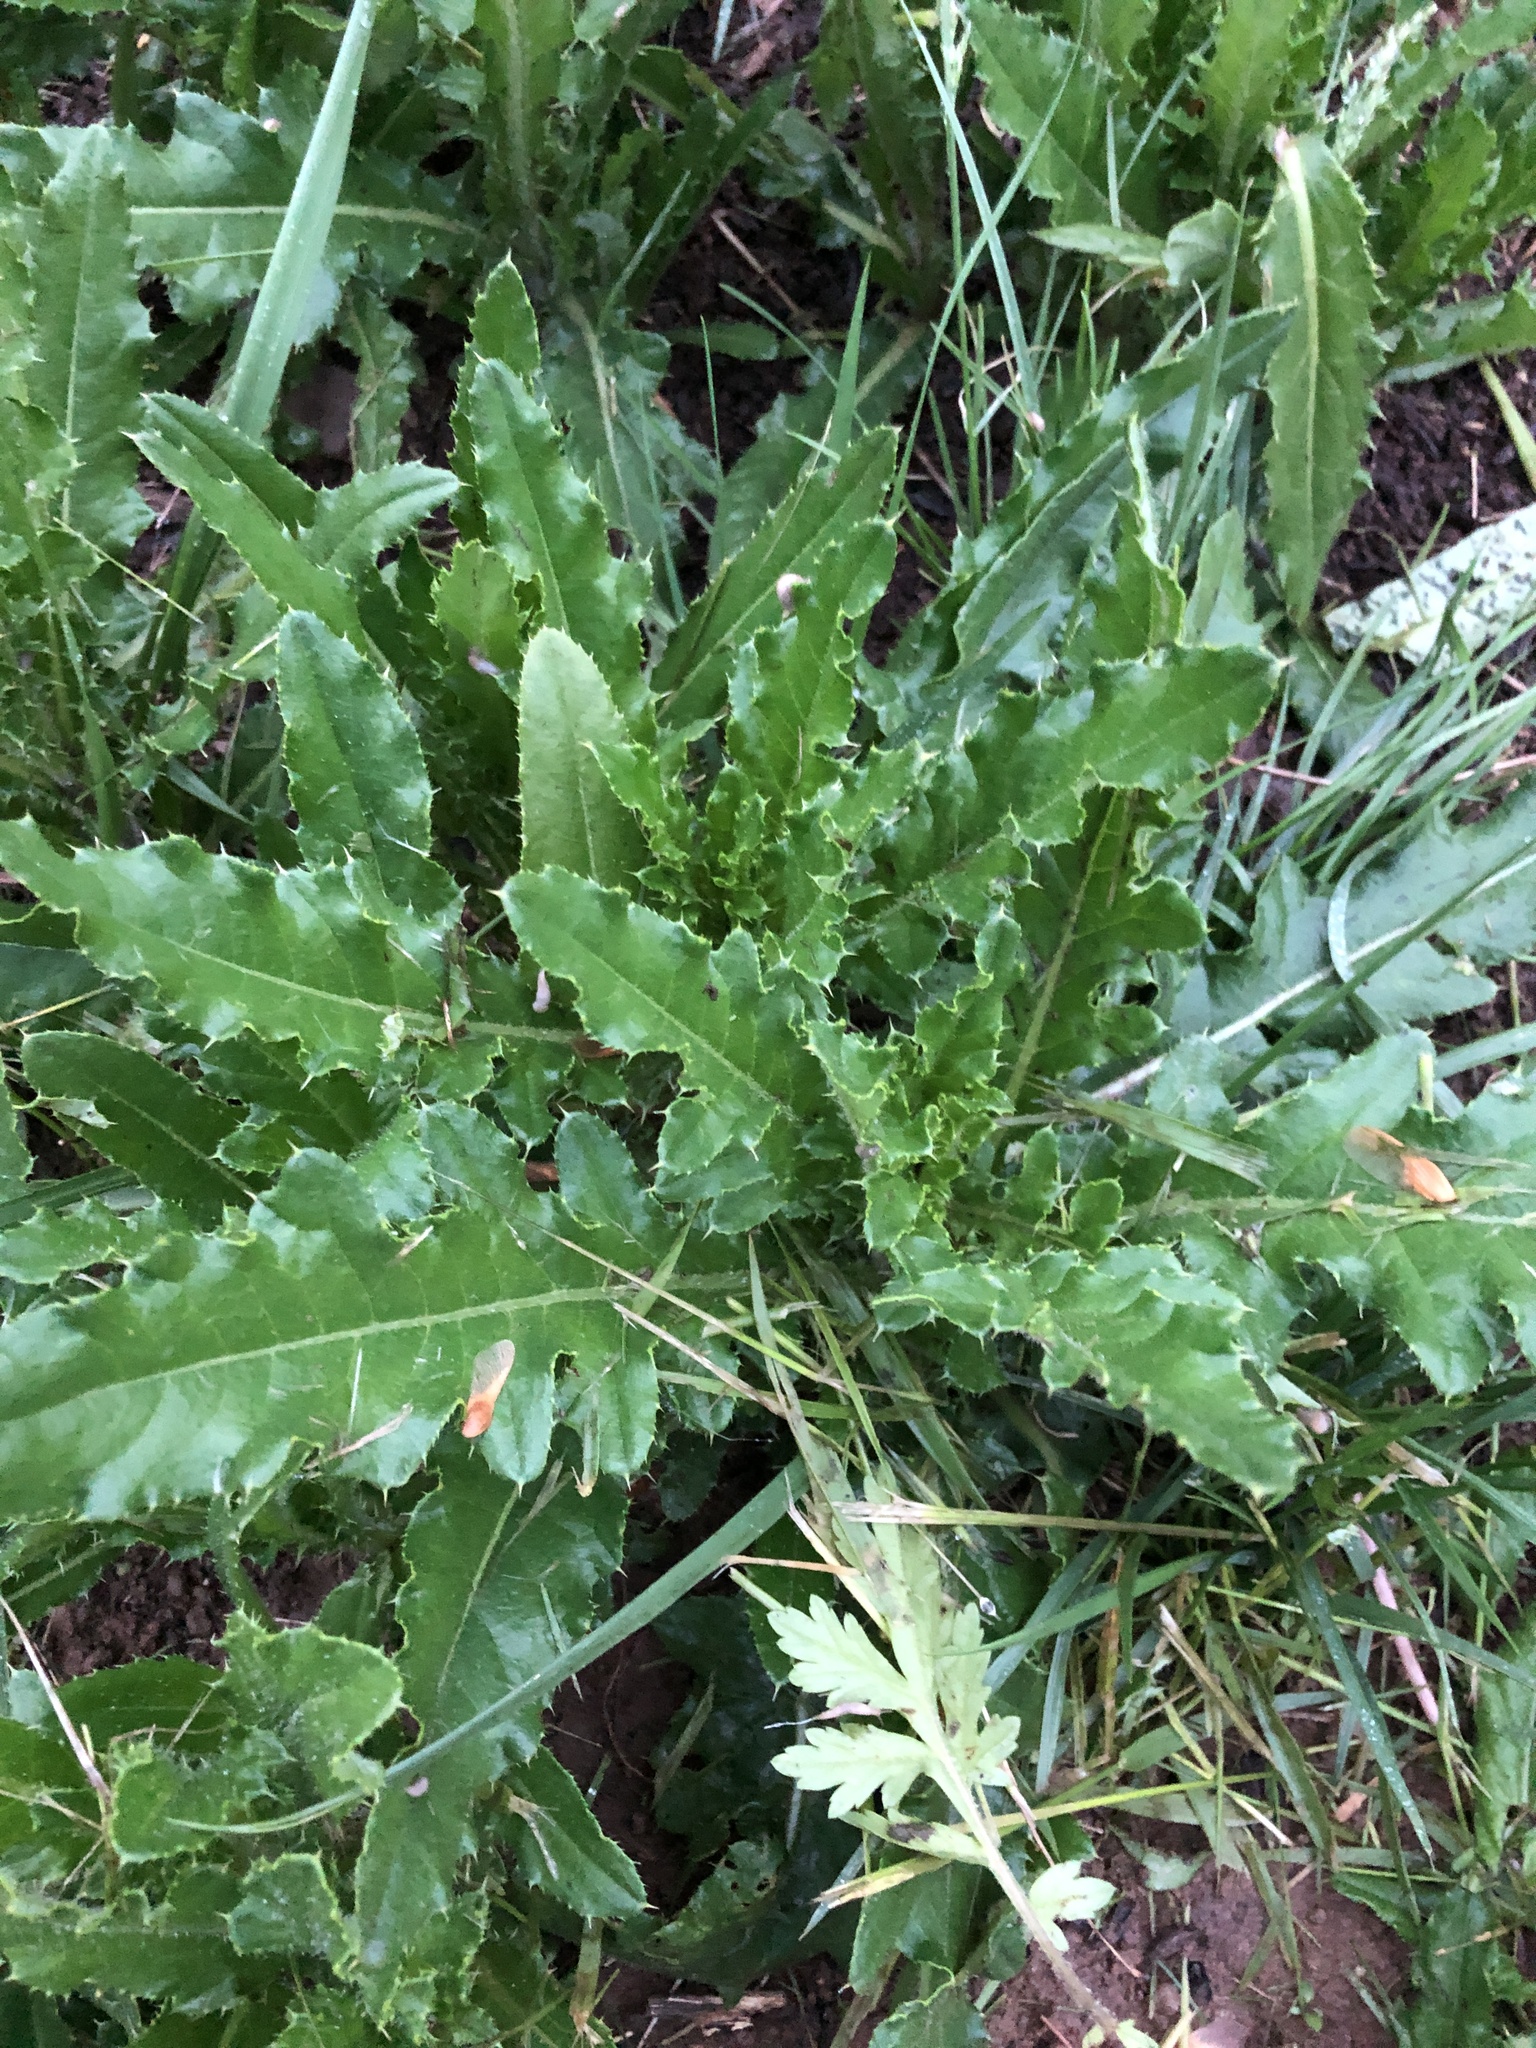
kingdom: Plantae
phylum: Tracheophyta
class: Magnoliopsida
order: Asterales
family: Asteraceae
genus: Cirsium
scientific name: Cirsium arvense
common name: Creeping thistle
